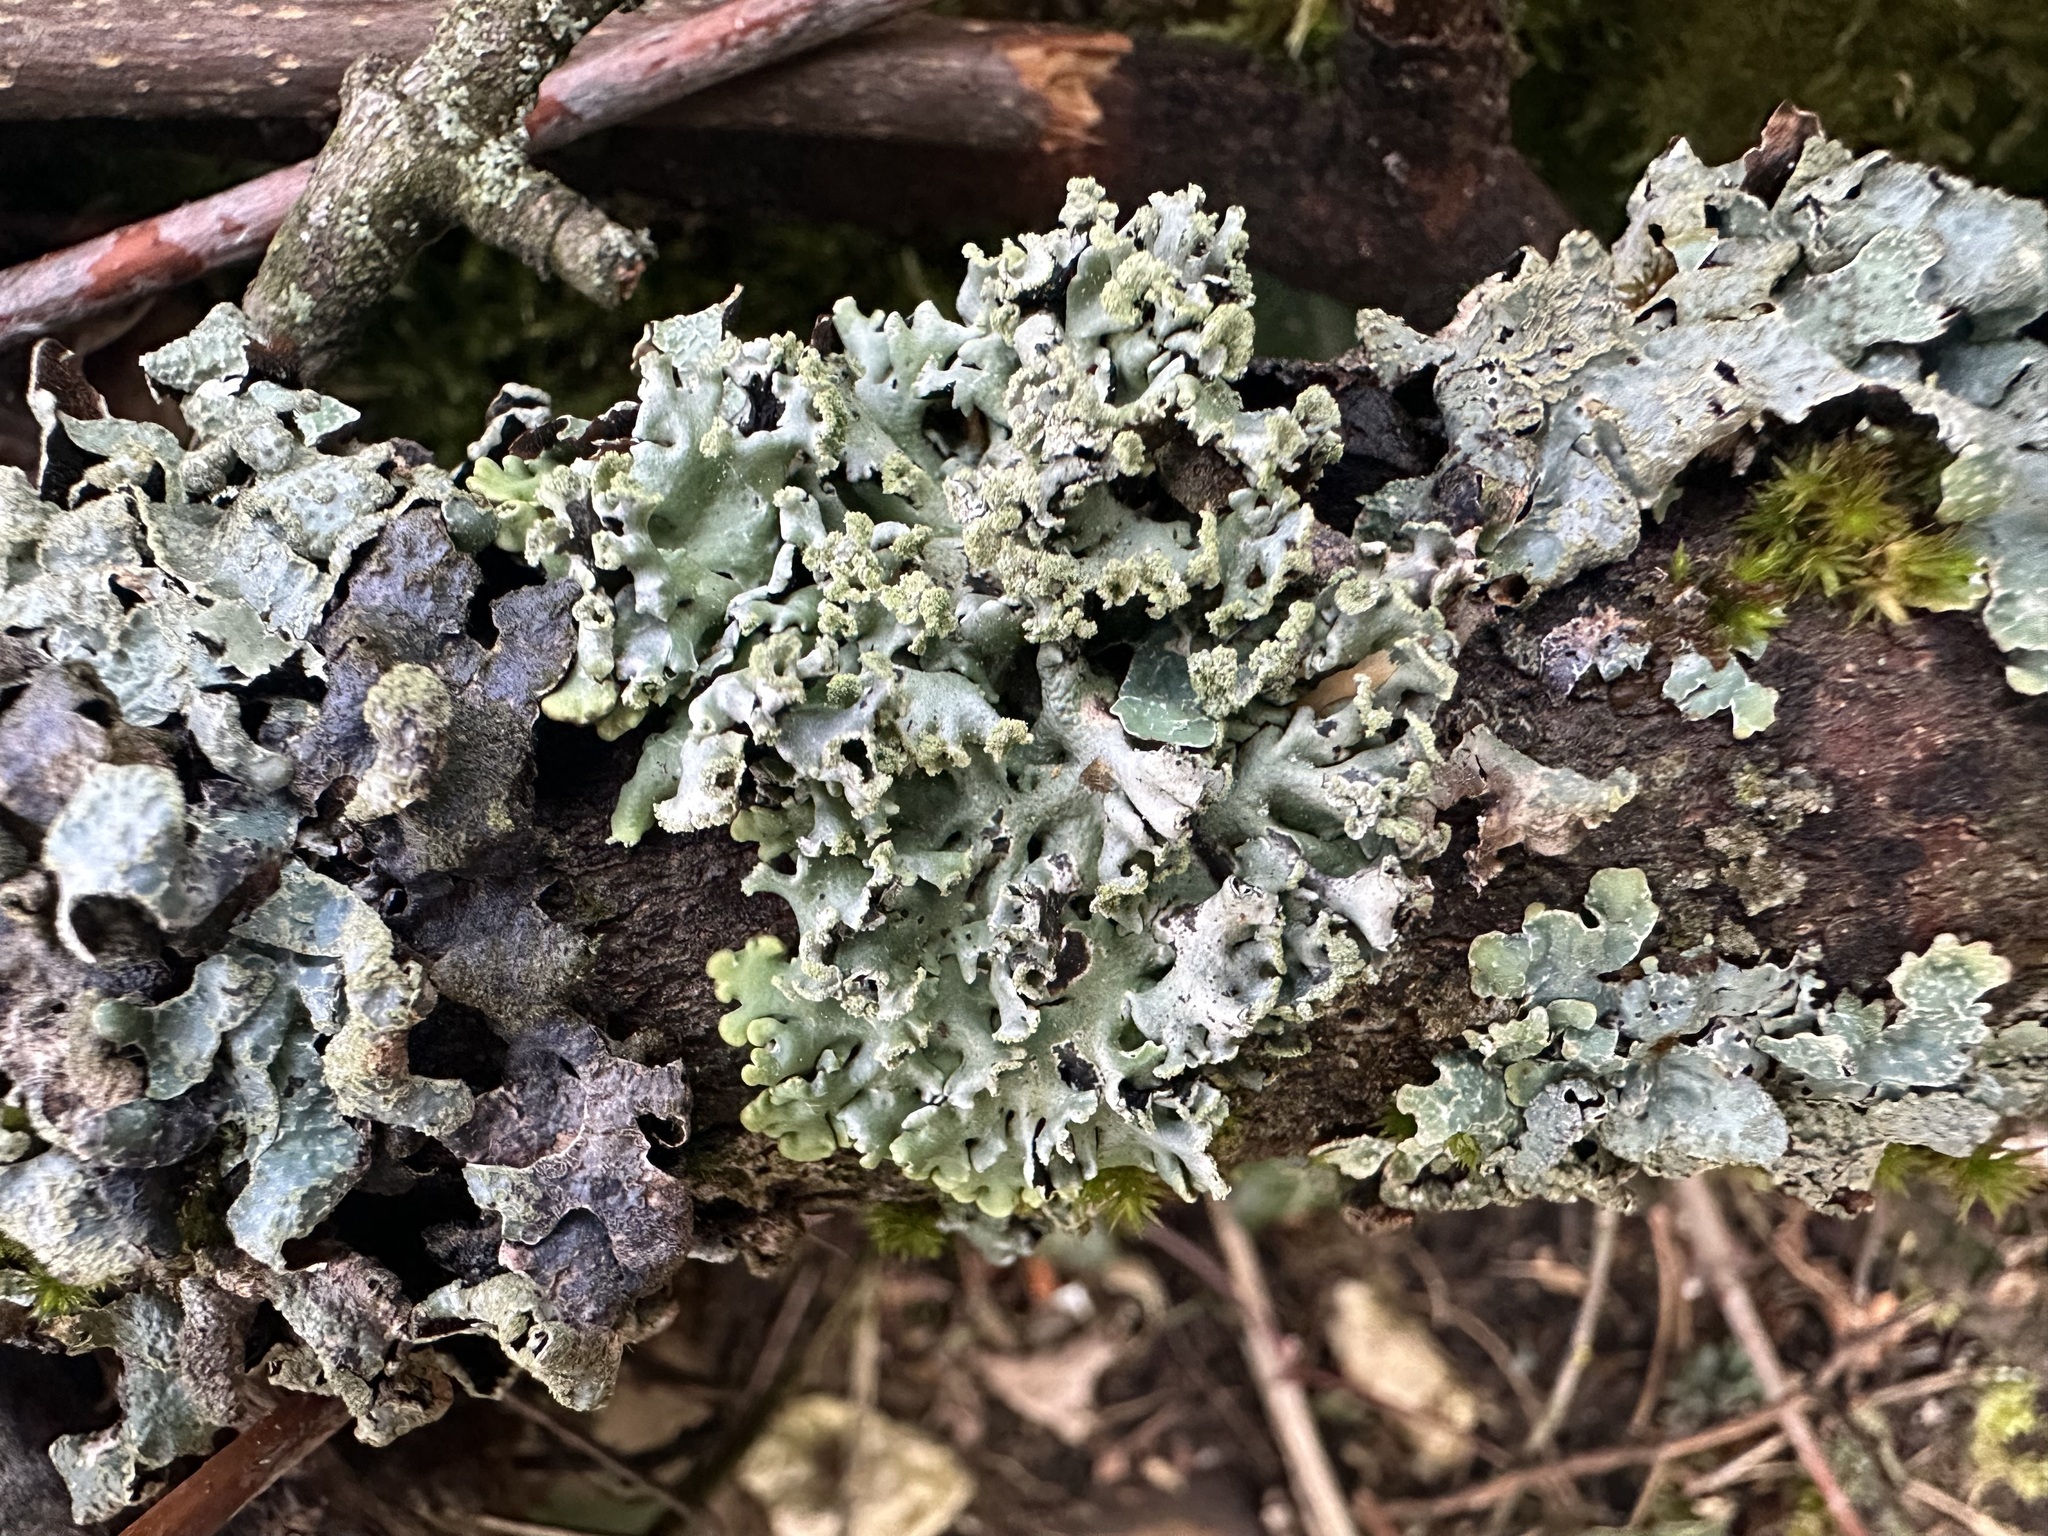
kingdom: Fungi
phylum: Ascomycota
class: Lecanoromycetes
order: Lecanorales
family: Parmeliaceae
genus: Hypogymnia
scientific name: Hypogymnia physodes
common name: Dark crottle
